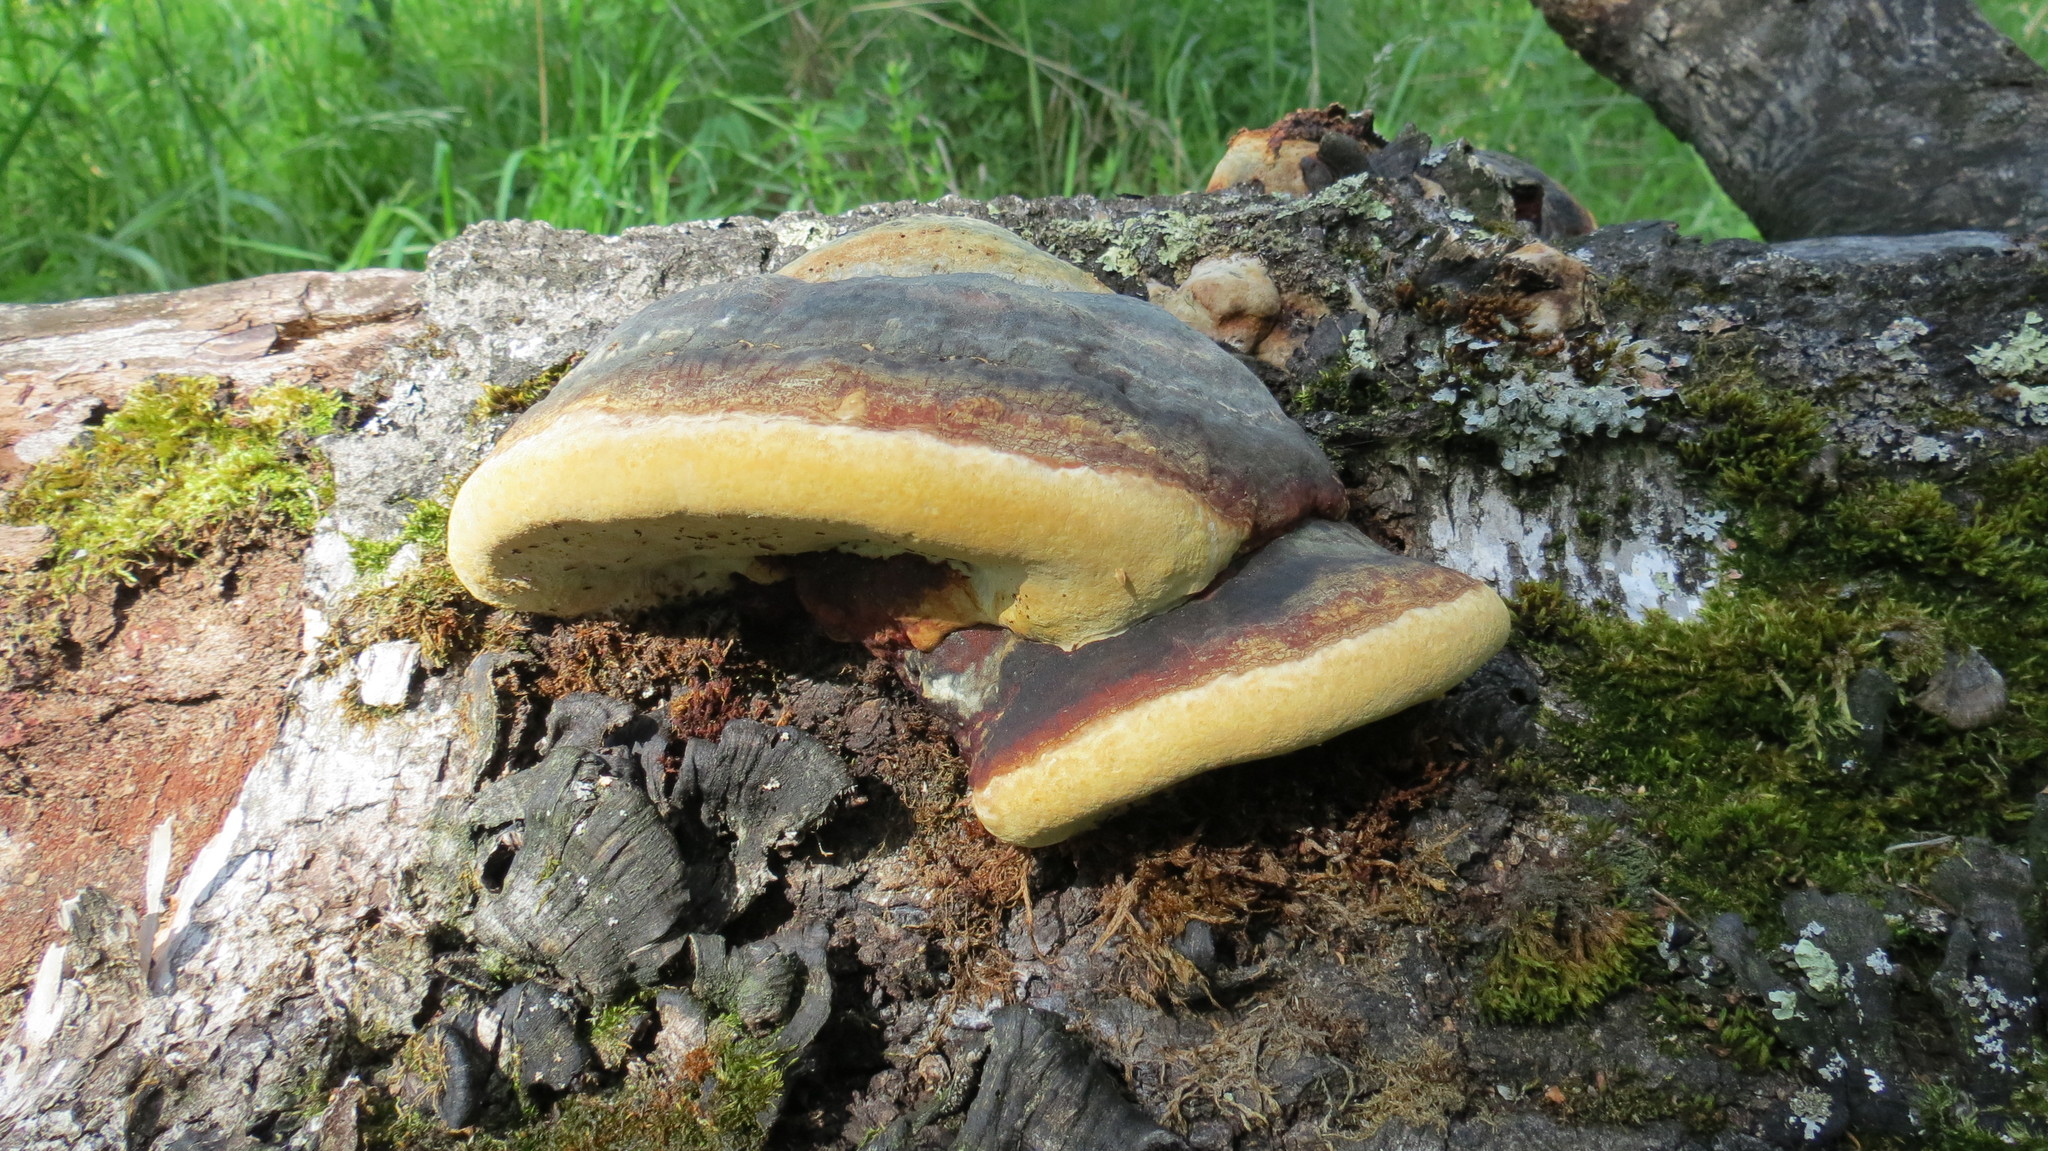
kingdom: Fungi
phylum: Basidiomycota
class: Agaricomycetes
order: Polyporales
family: Fomitopsidaceae
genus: Fomitopsis
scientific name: Fomitopsis pinicola
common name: Red-belted bracket
